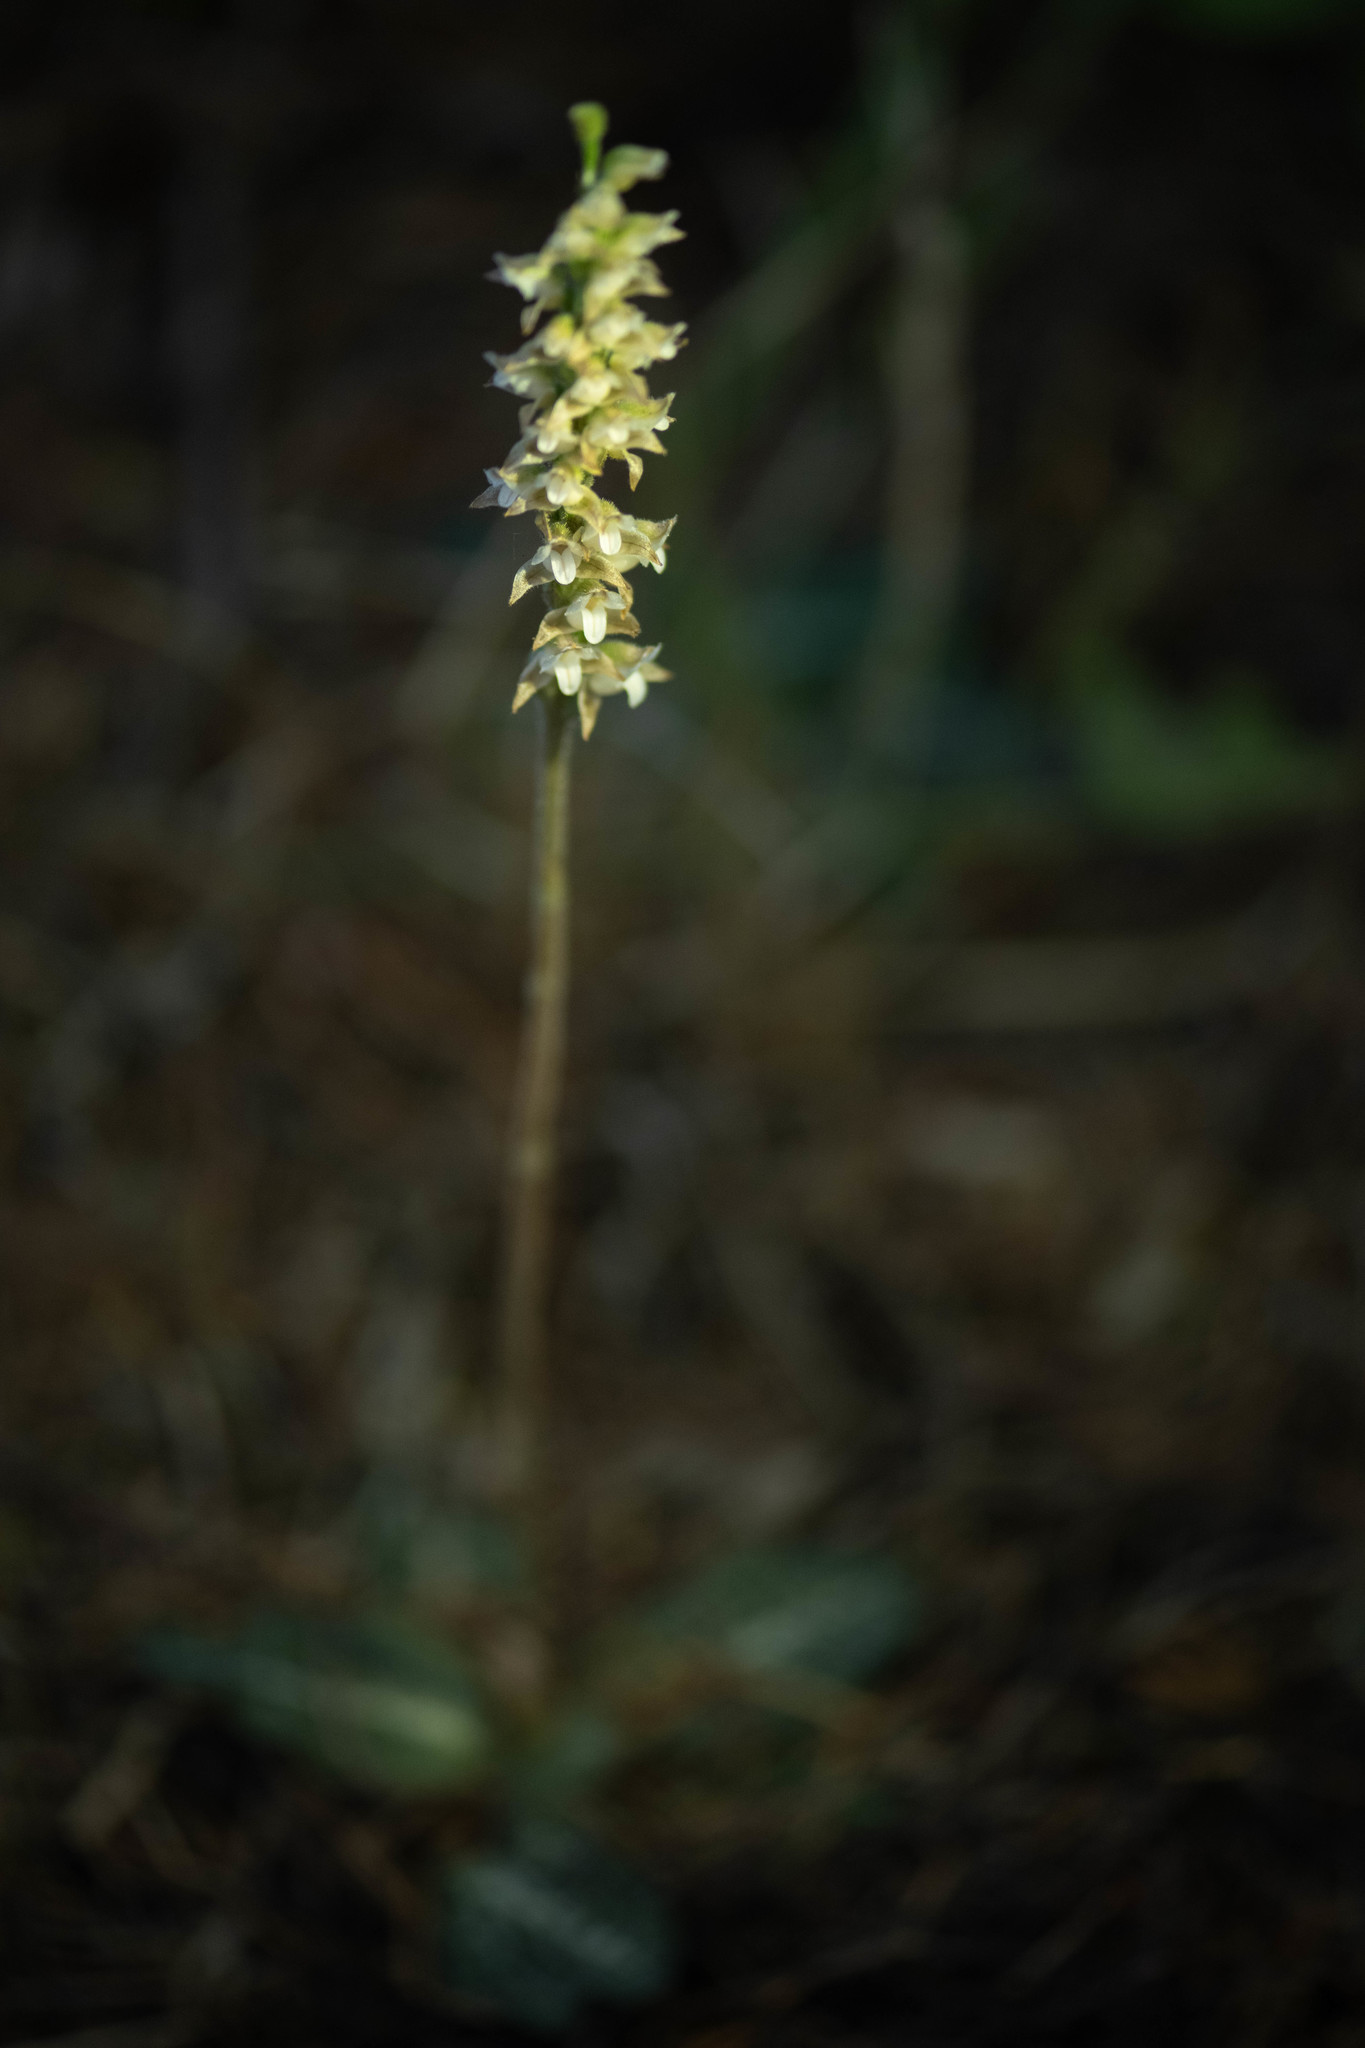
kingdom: Plantae
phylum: Tracheophyta
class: Liliopsida
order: Asparagales
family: Orchidaceae
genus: Goodyera
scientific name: Goodyera oblongifolia
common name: Giant rattlesnake-plantain
